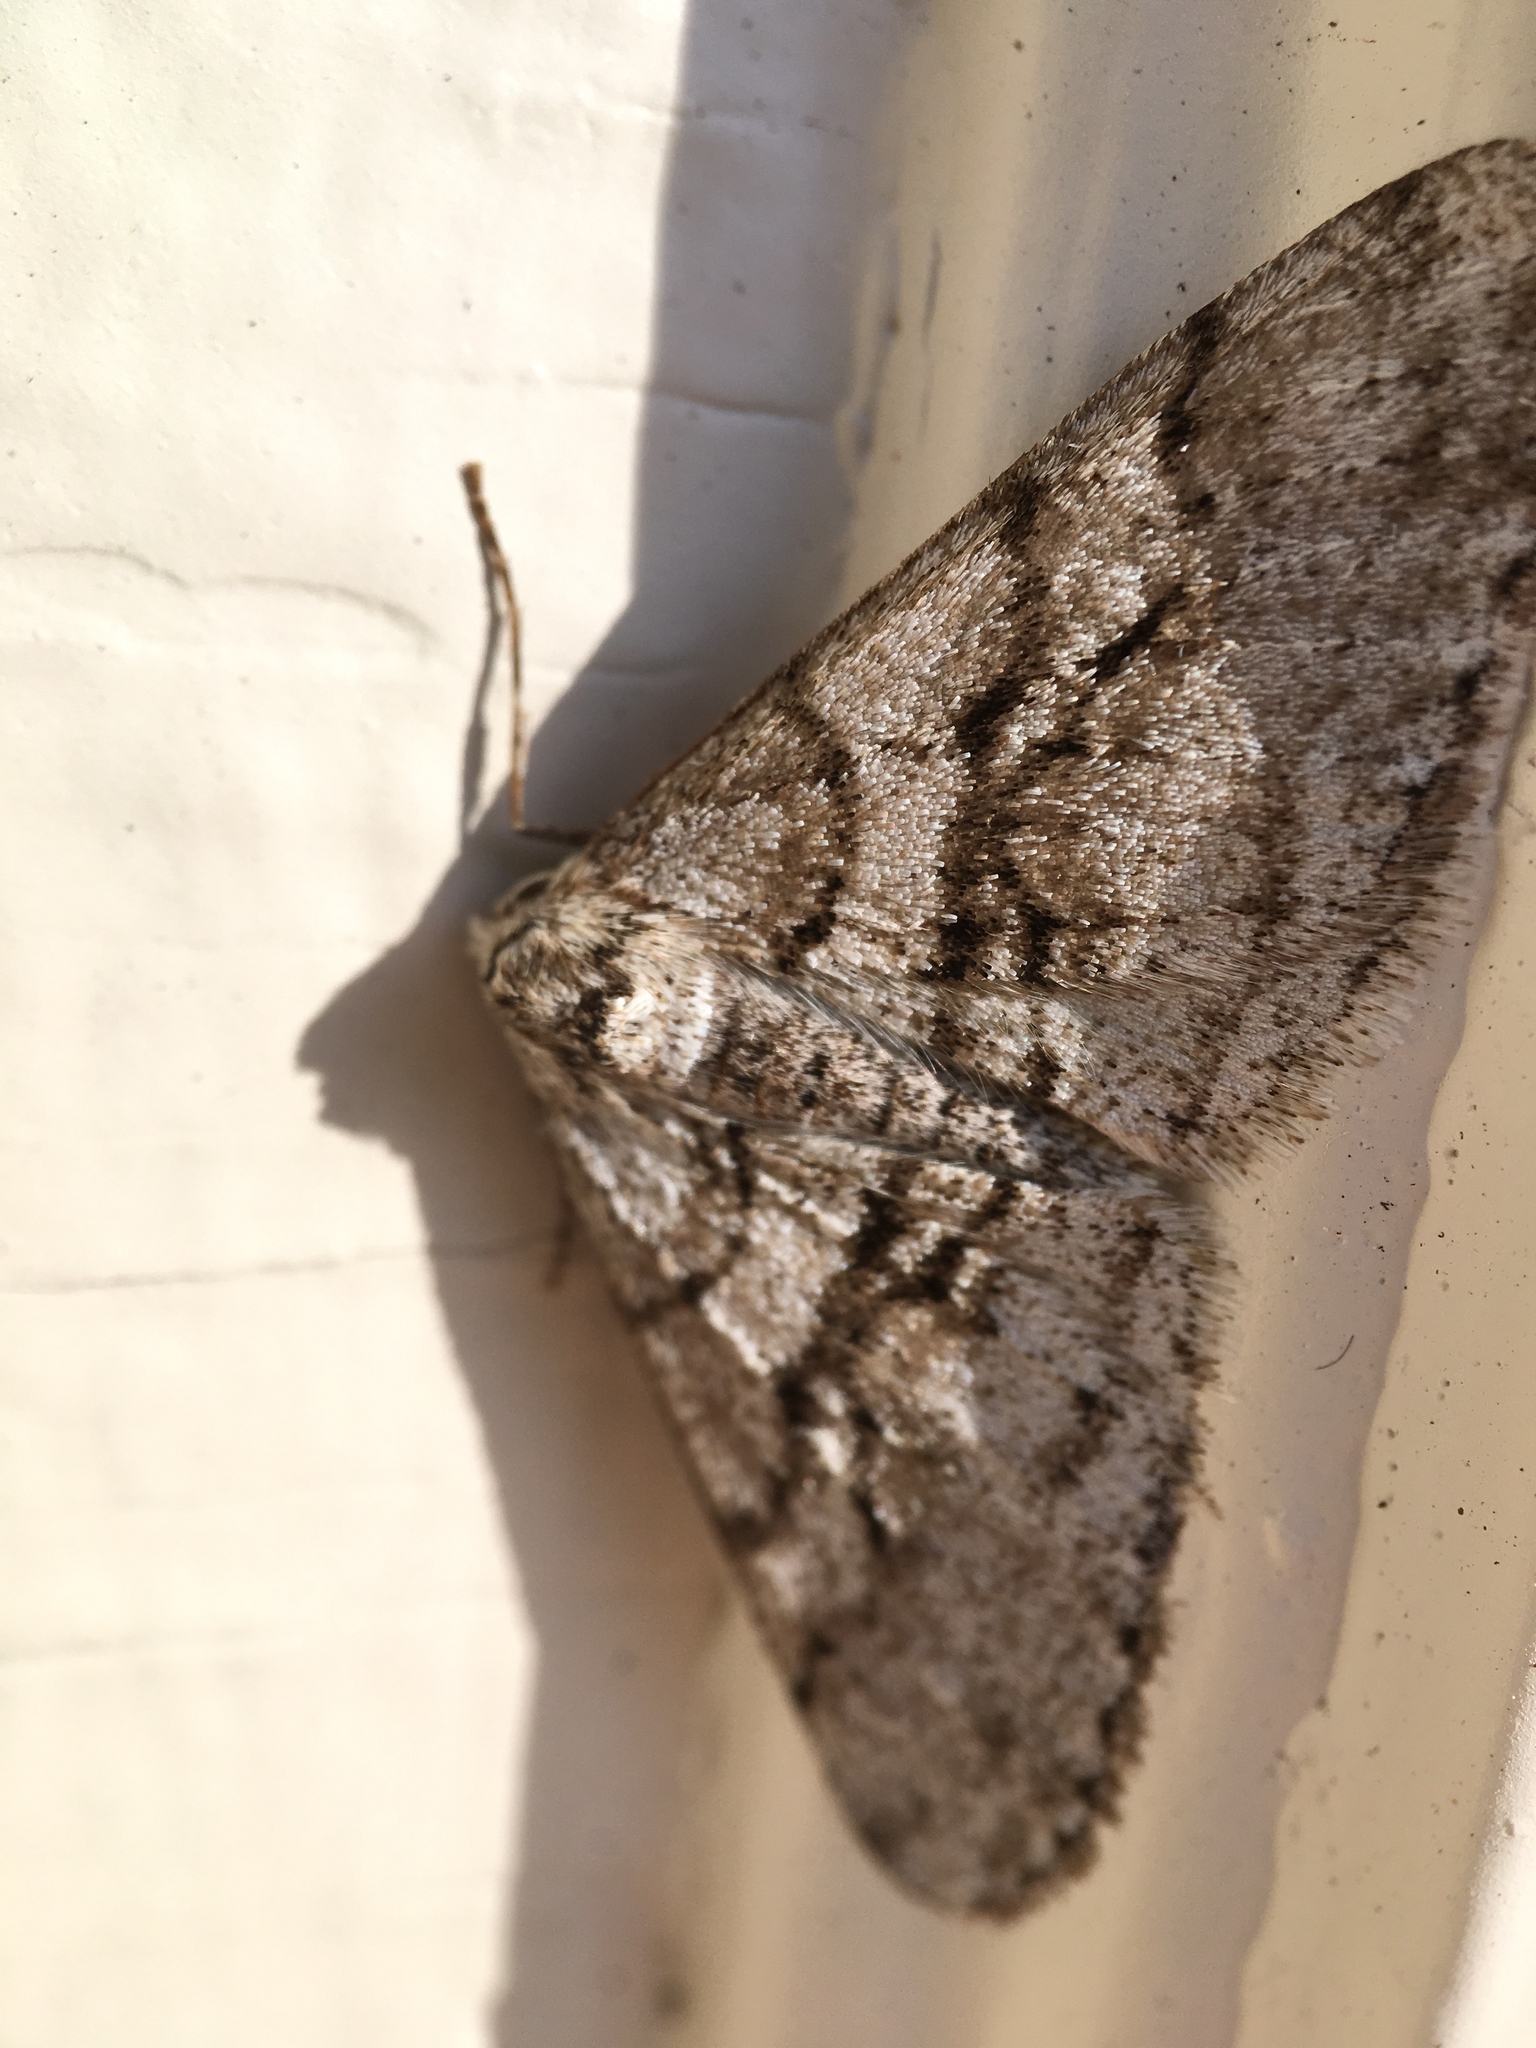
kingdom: Animalia
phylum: Arthropoda
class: Insecta
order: Lepidoptera
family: Geometridae
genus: Phigalia
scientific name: Phigalia titea
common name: Spiny looper
